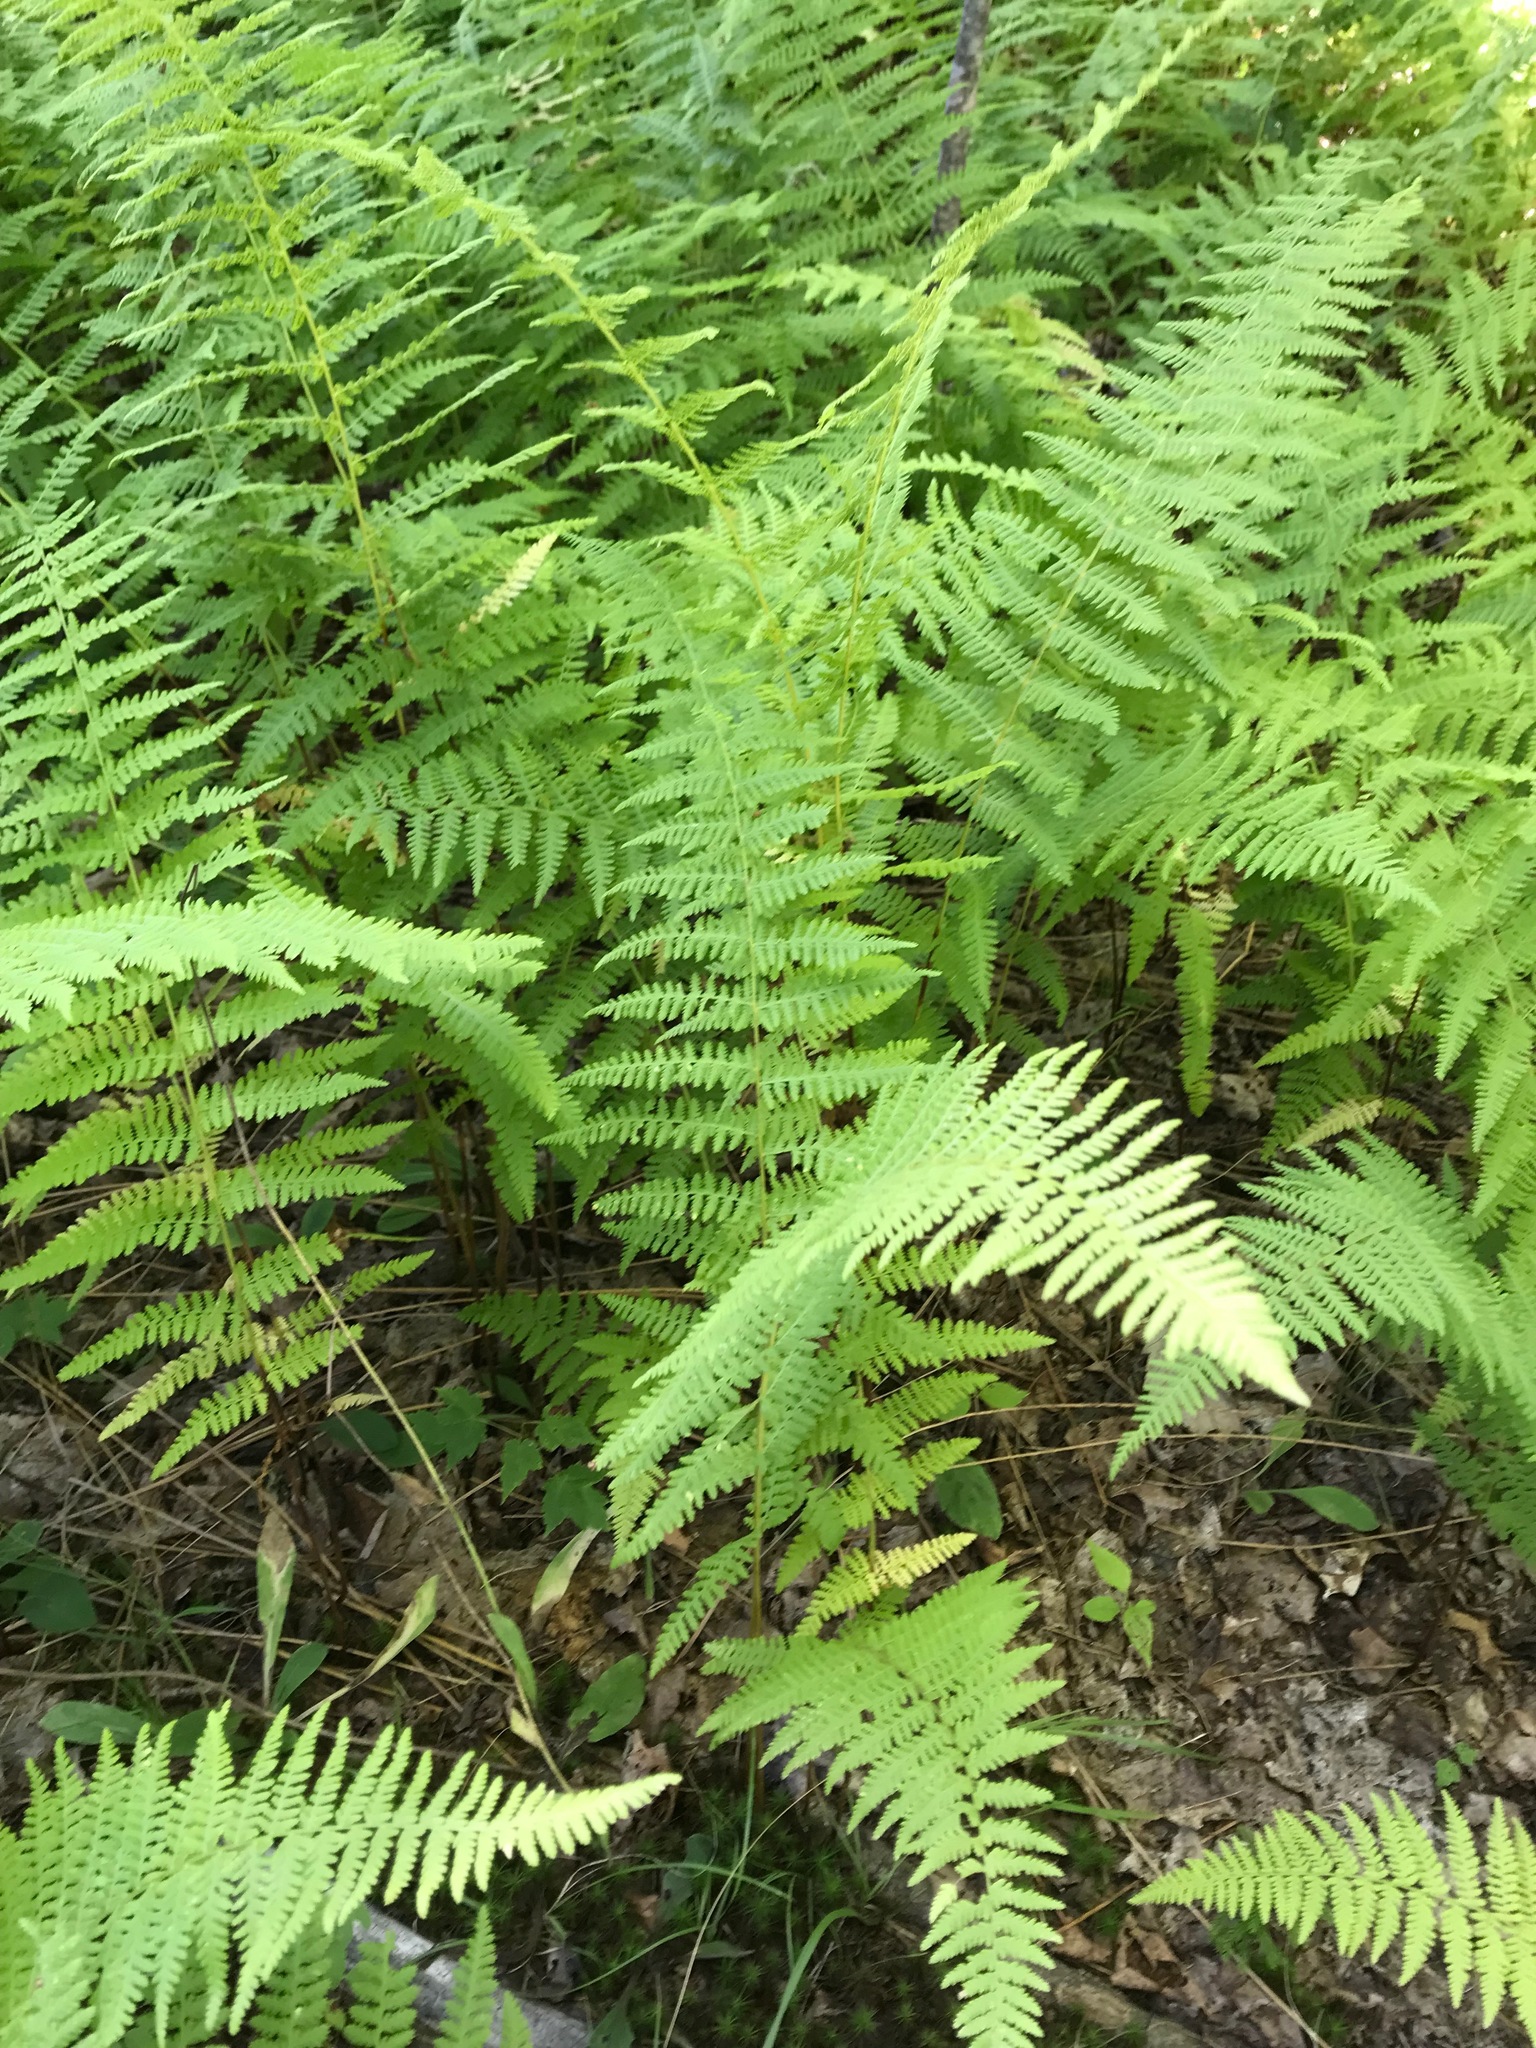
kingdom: Plantae
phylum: Tracheophyta
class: Polypodiopsida
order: Polypodiales
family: Dennstaedtiaceae
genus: Sitobolium
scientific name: Sitobolium punctilobum
